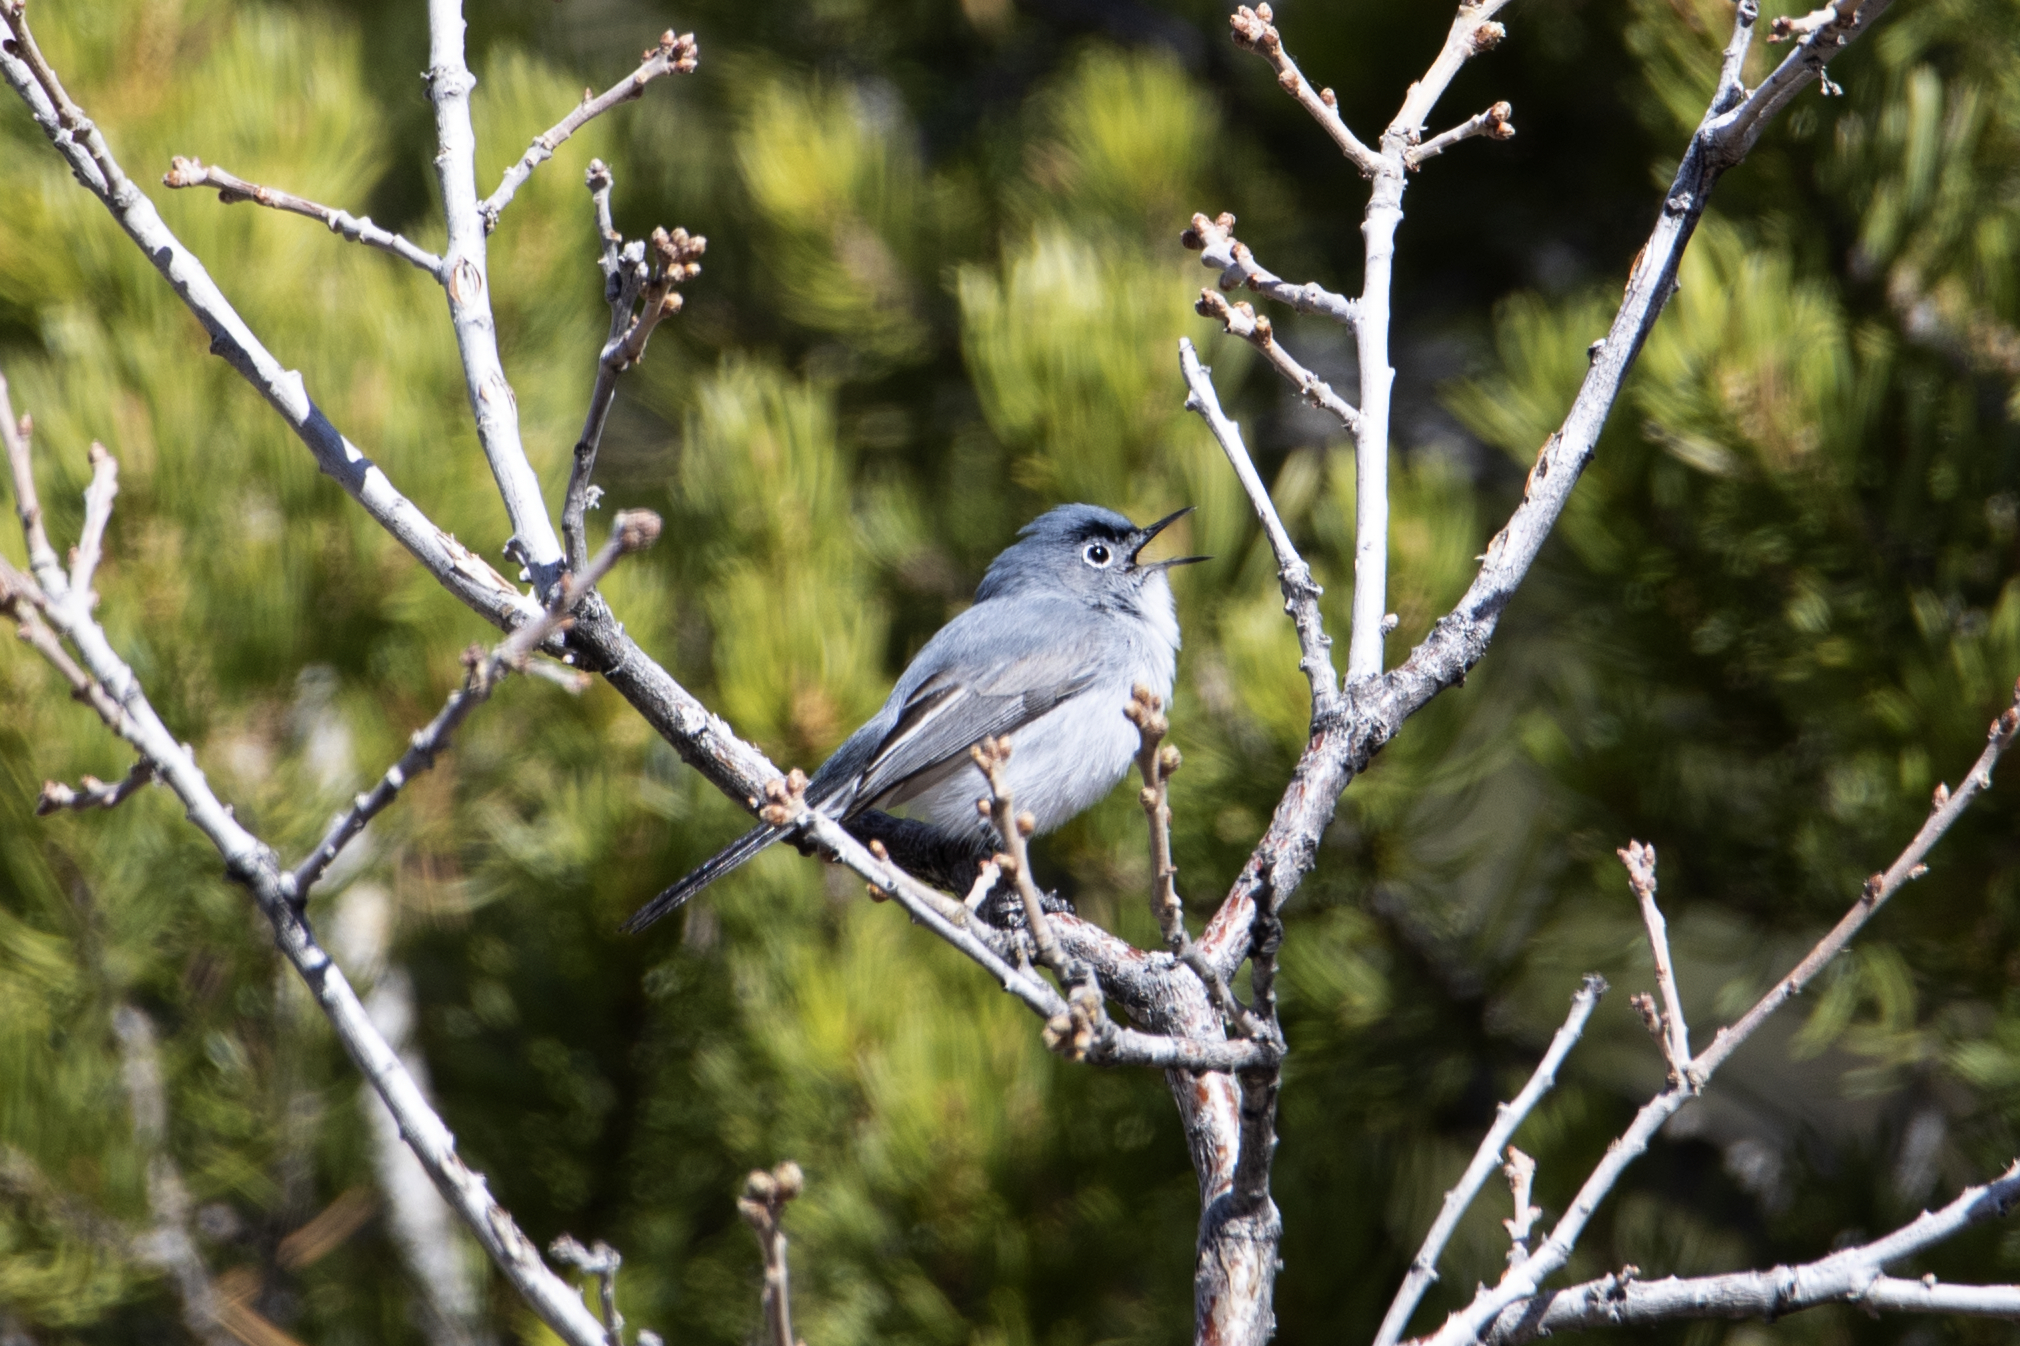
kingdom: Animalia
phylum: Chordata
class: Aves
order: Passeriformes
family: Polioptilidae
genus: Polioptila
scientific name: Polioptila caerulea
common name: Blue-gray gnatcatcher
